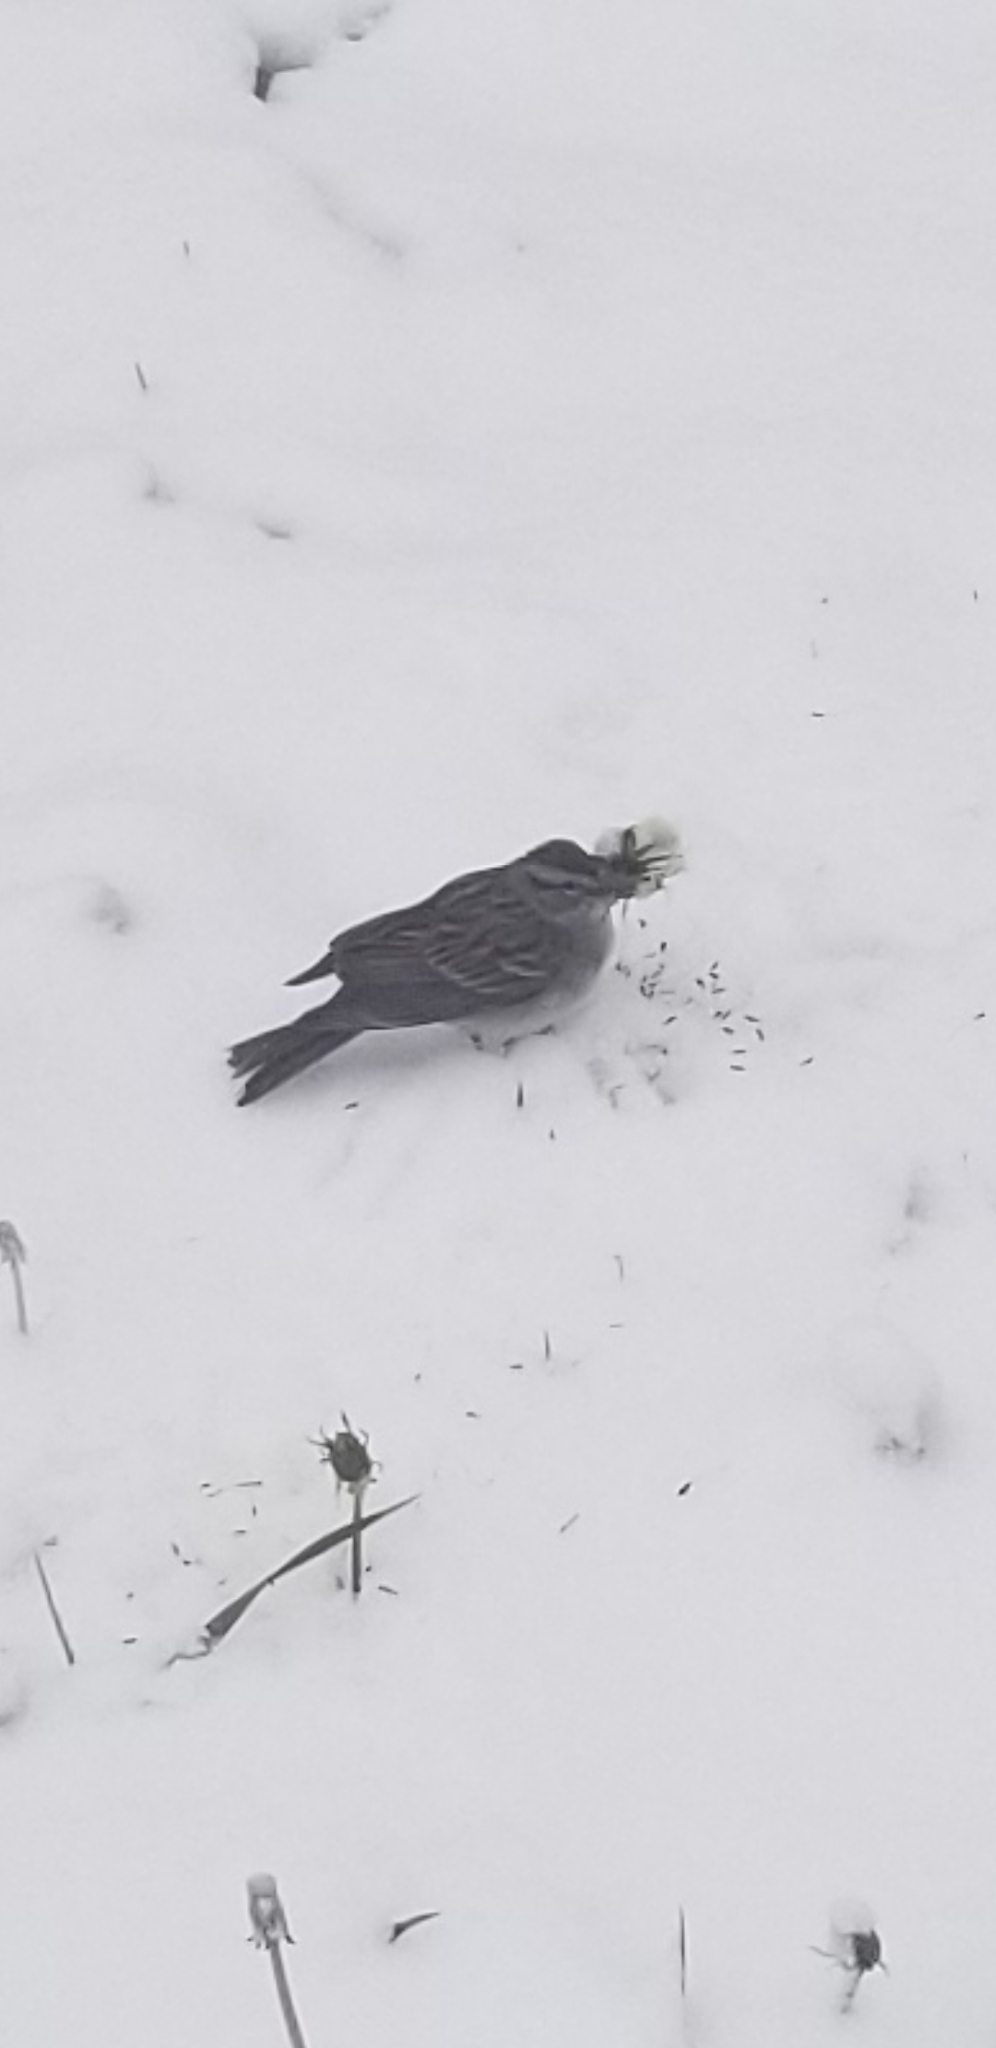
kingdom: Animalia
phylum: Chordata
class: Aves
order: Passeriformes
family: Passerellidae
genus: Spizella
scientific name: Spizella passerina
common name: Chipping sparrow
